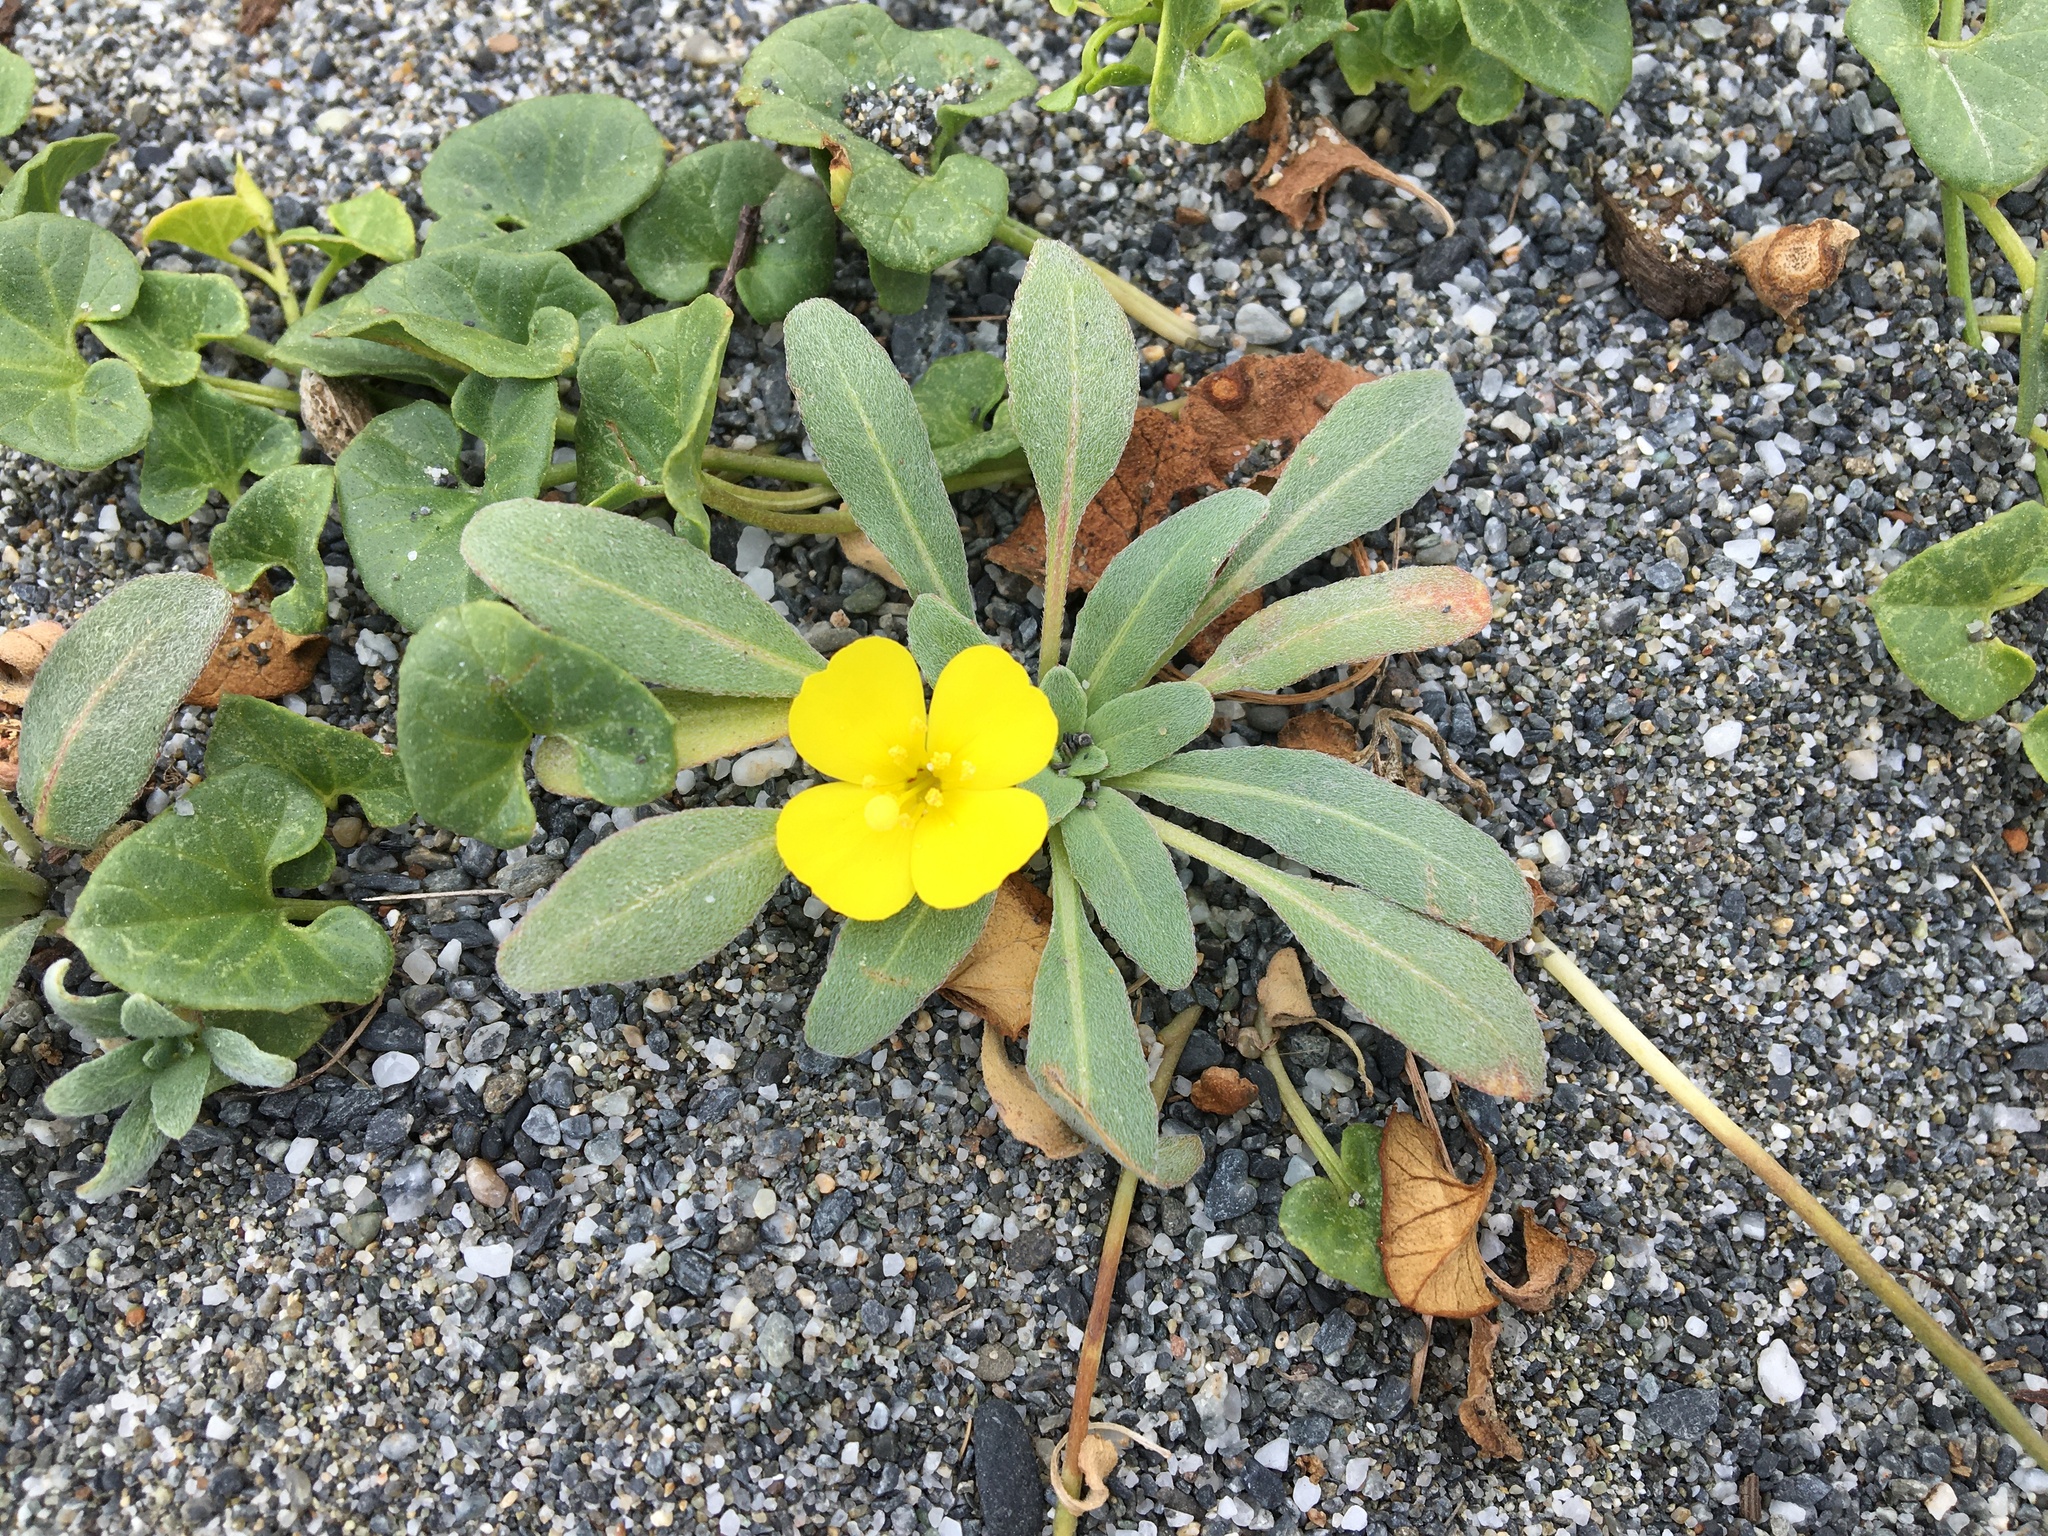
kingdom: Plantae
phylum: Tracheophyta
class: Magnoliopsida
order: Myrtales
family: Onagraceae
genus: Camissoniopsis
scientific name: Camissoniopsis cheiranthifolia
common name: Beach suncup
